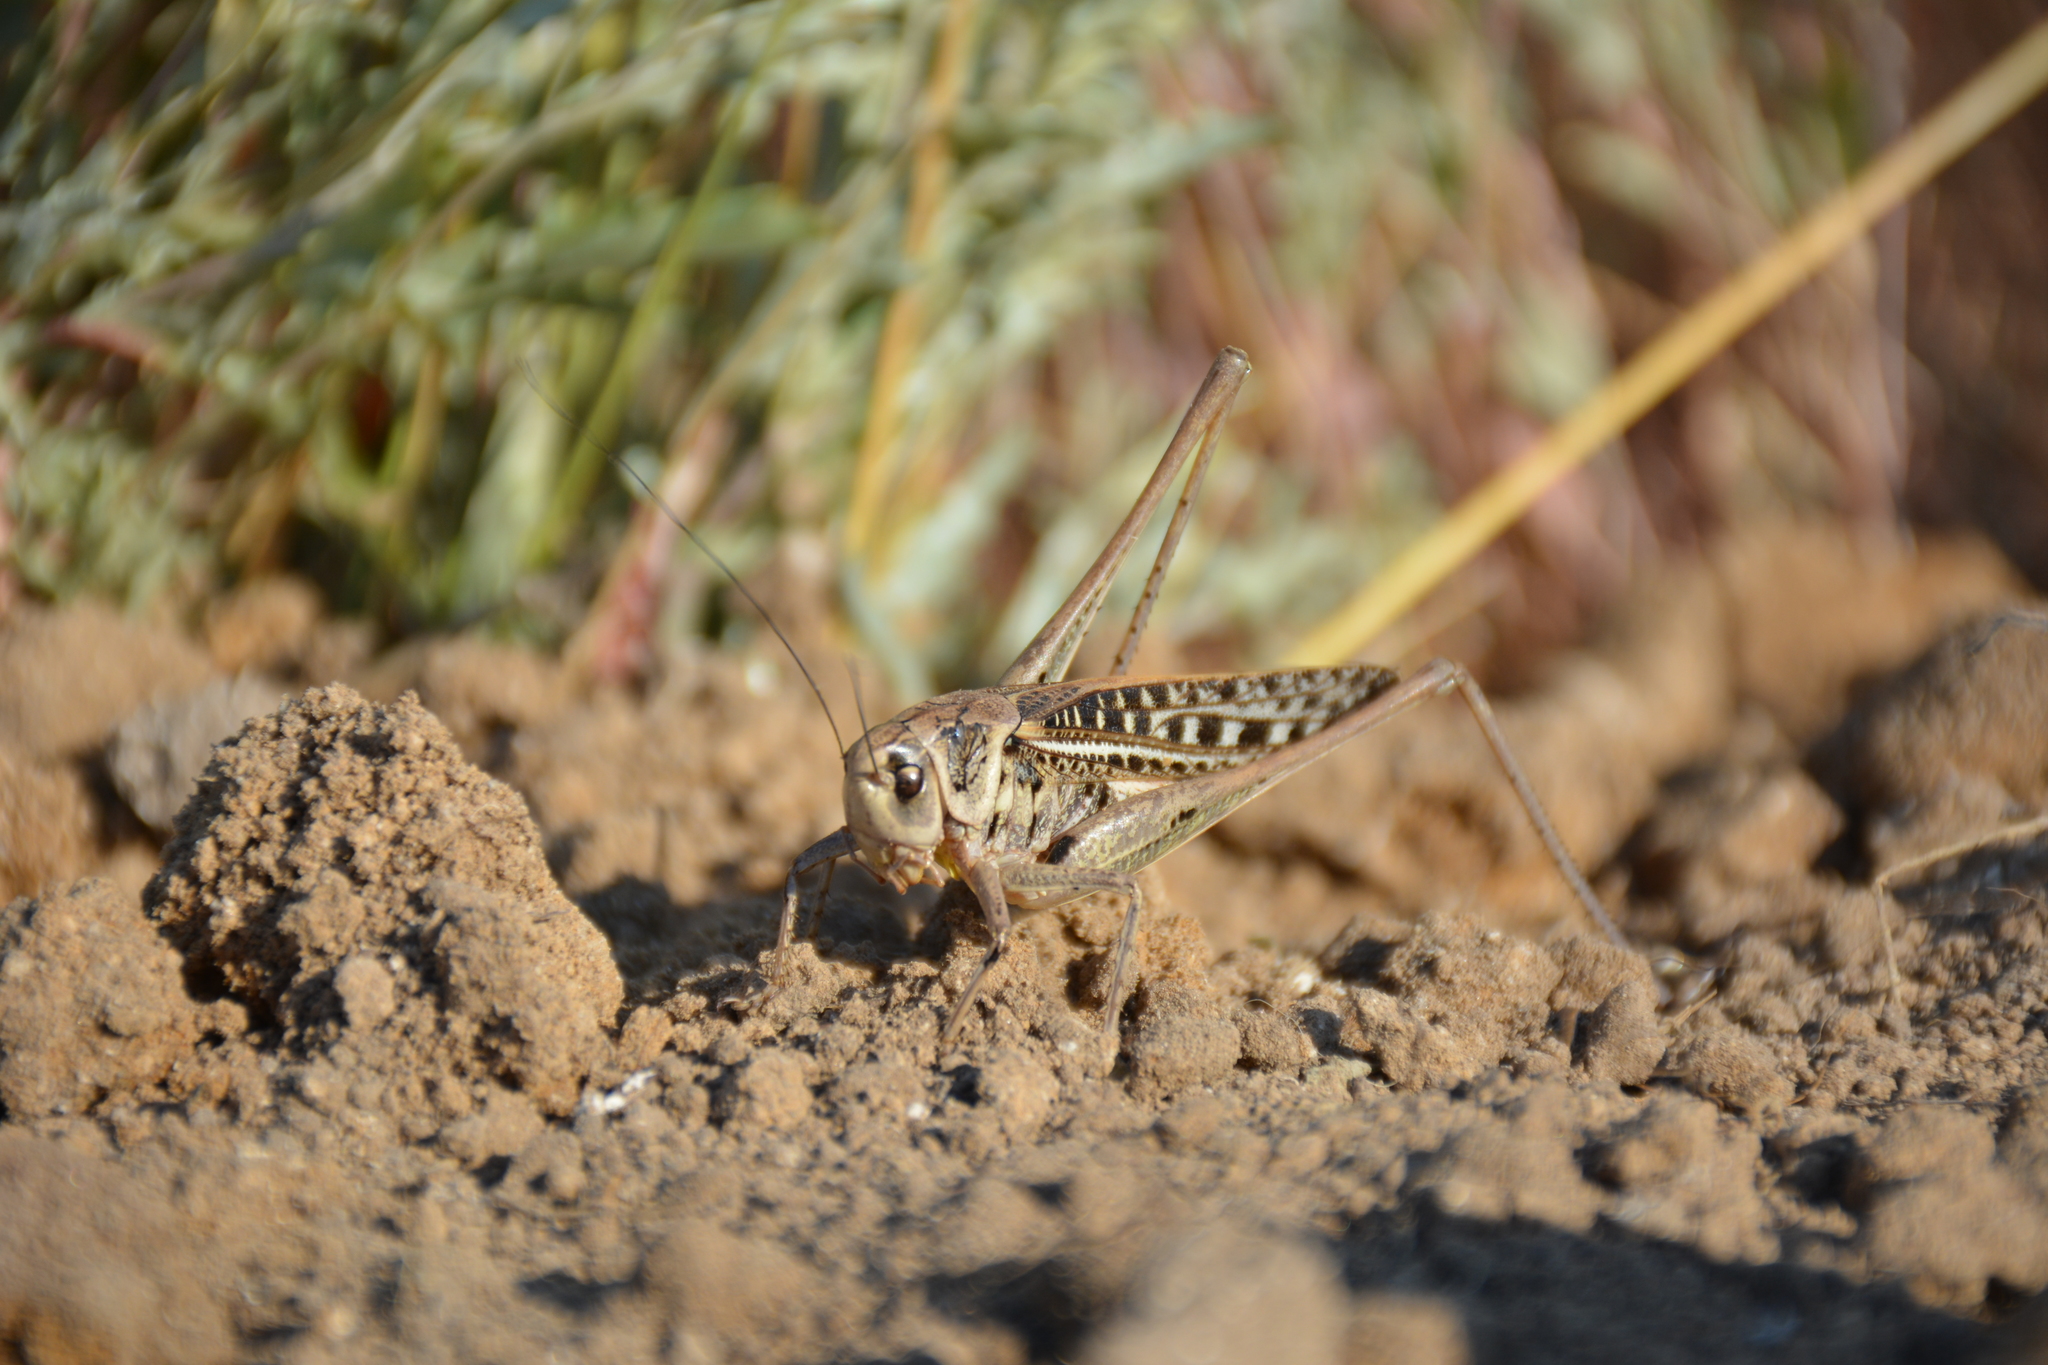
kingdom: Animalia
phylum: Arthropoda
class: Insecta
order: Orthoptera
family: Tettigoniidae
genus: Decticus
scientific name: Decticus verrucivorus
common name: Wart-biter
